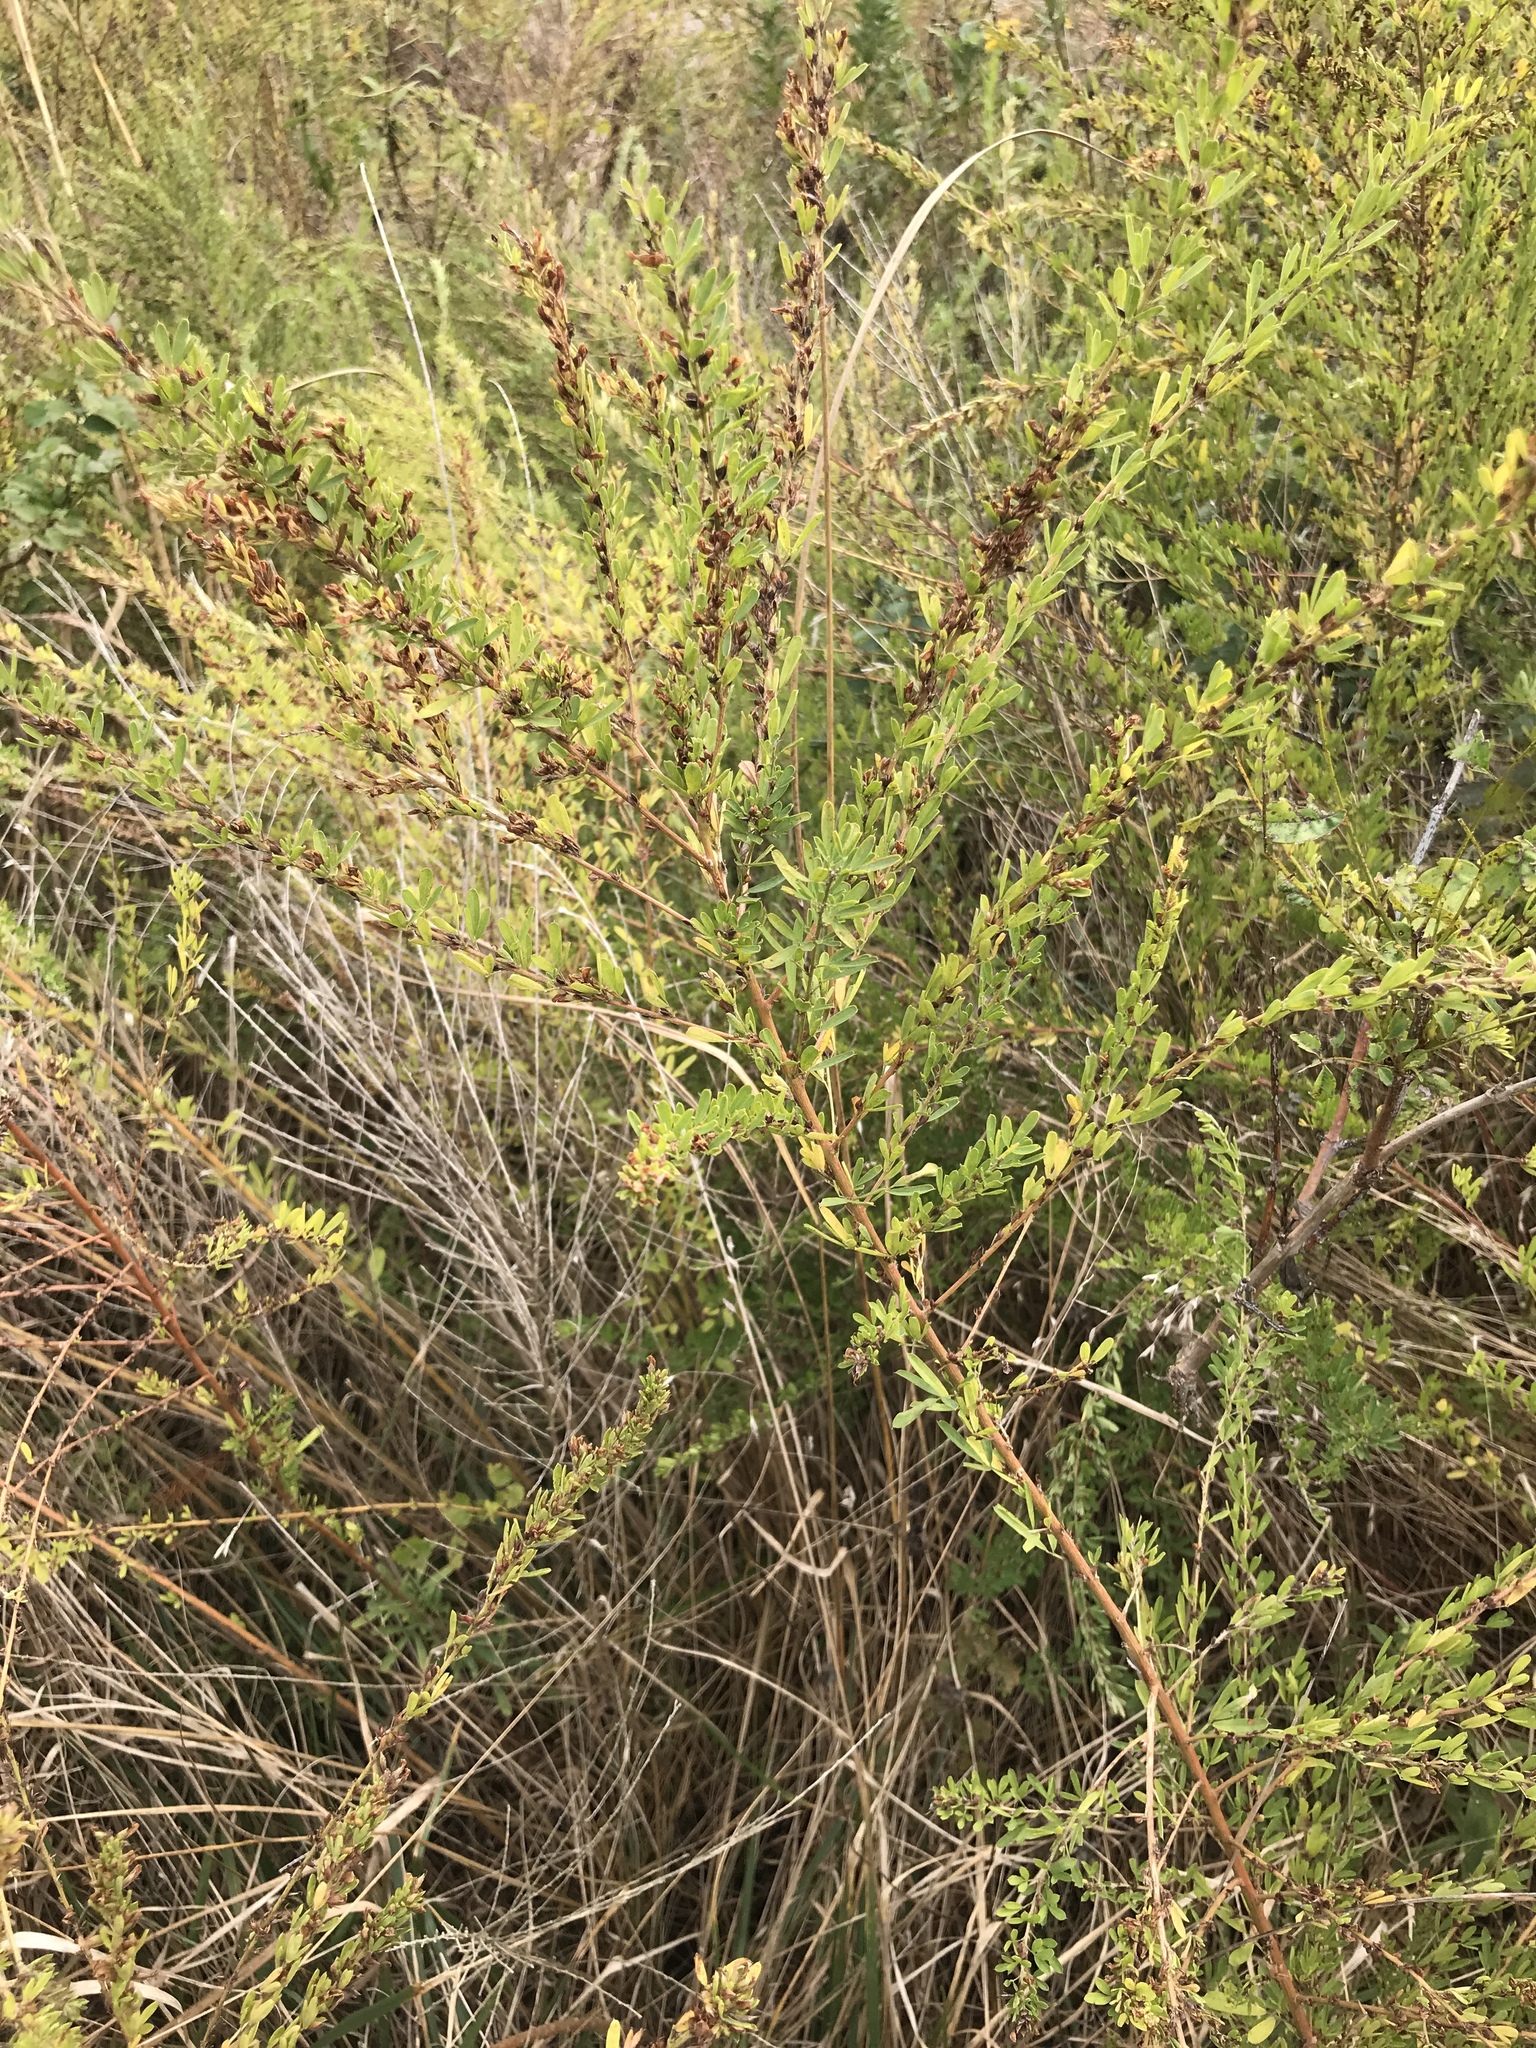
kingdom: Plantae
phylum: Tracheophyta
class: Magnoliopsida
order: Fabales
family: Fabaceae
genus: Lespedeza
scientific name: Lespedeza cuneata
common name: Chinese bush-clover
